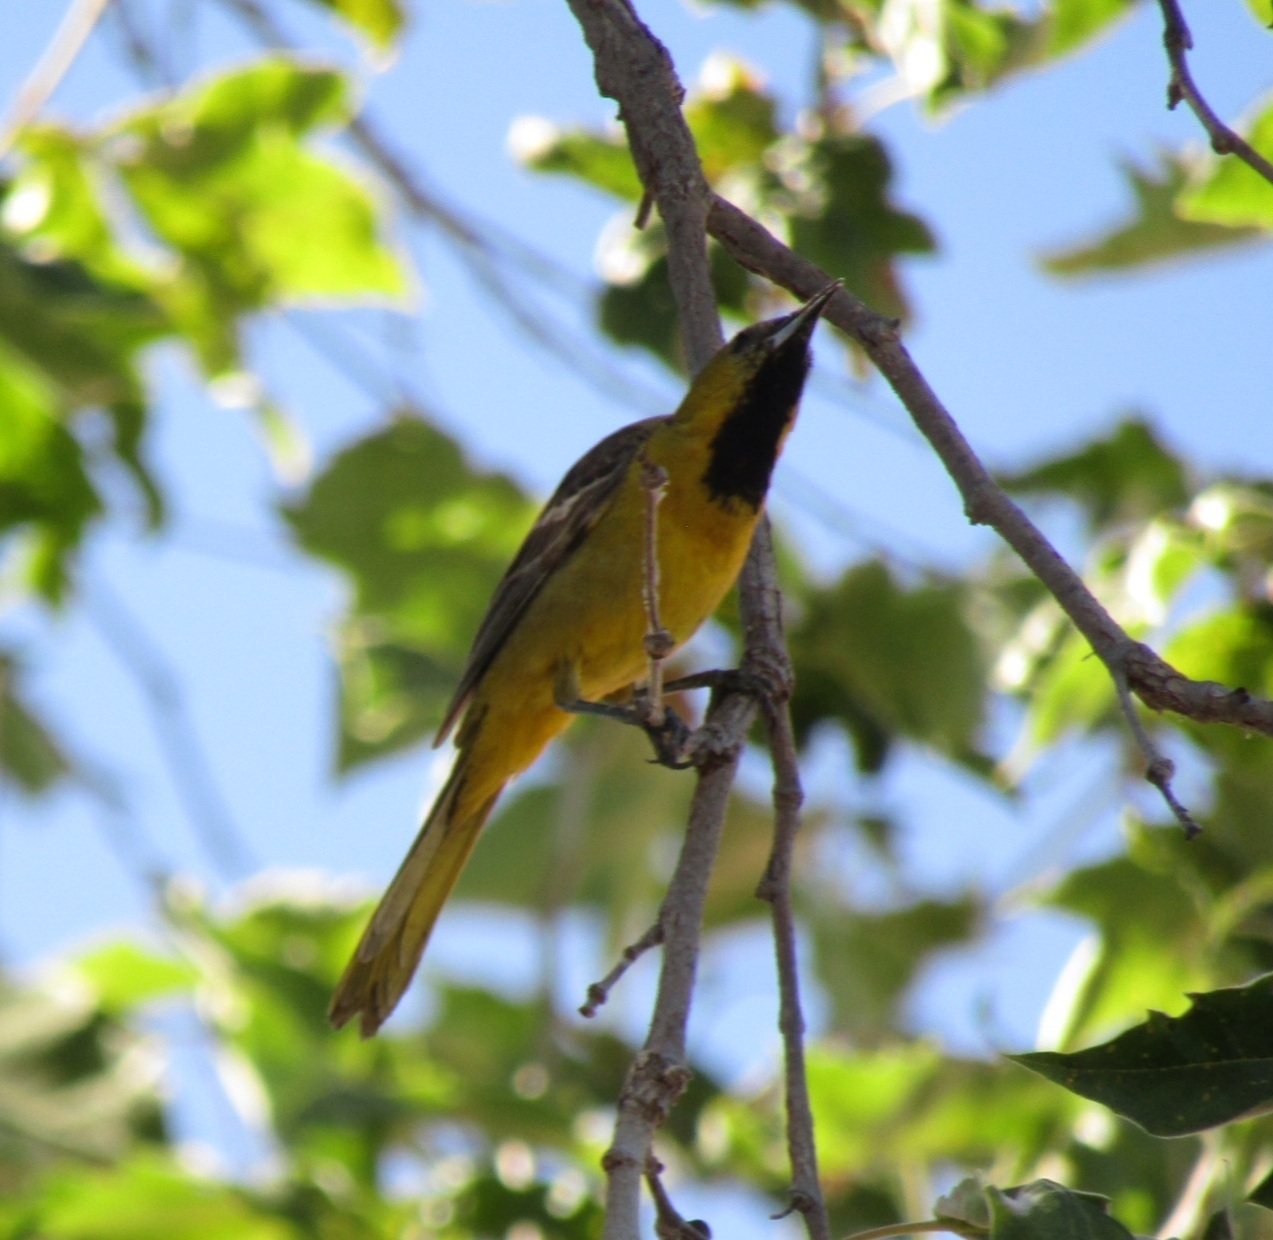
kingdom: Animalia
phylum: Chordata
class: Aves
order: Passeriformes
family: Icteridae
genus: Icterus
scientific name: Icterus cucullatus
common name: Hooded oriole
